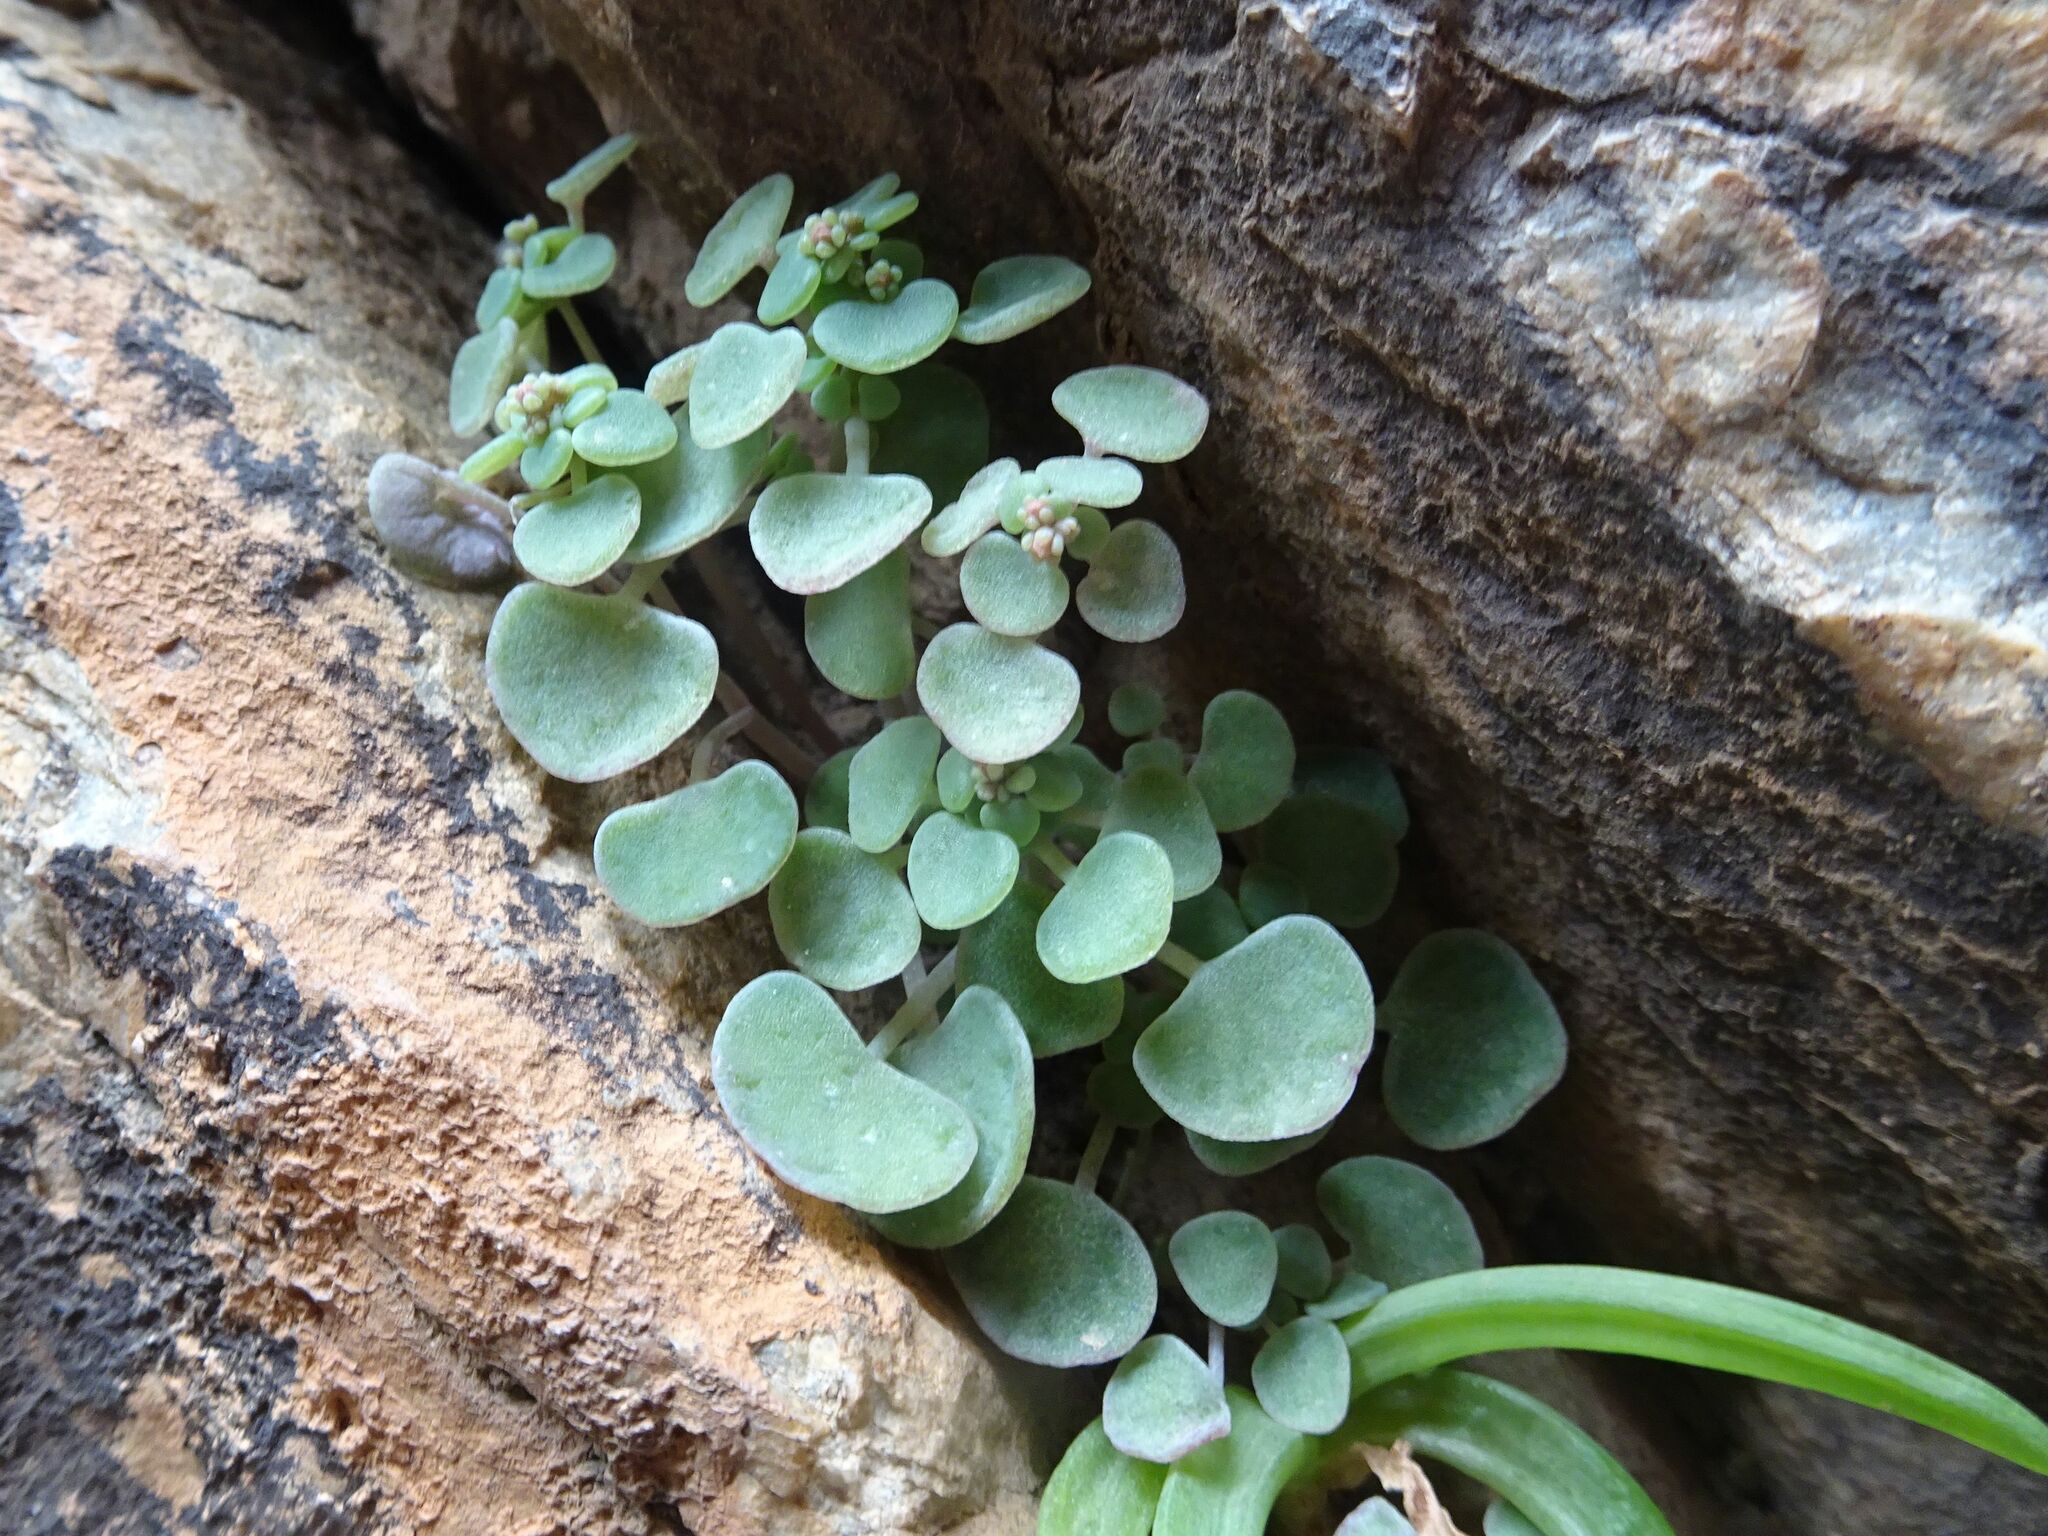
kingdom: Plantae
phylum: Tracheophyta
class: Magnoliopsida
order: Saxifragales
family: Crassulaceae
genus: Crassula
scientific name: Crassula nemorosa
